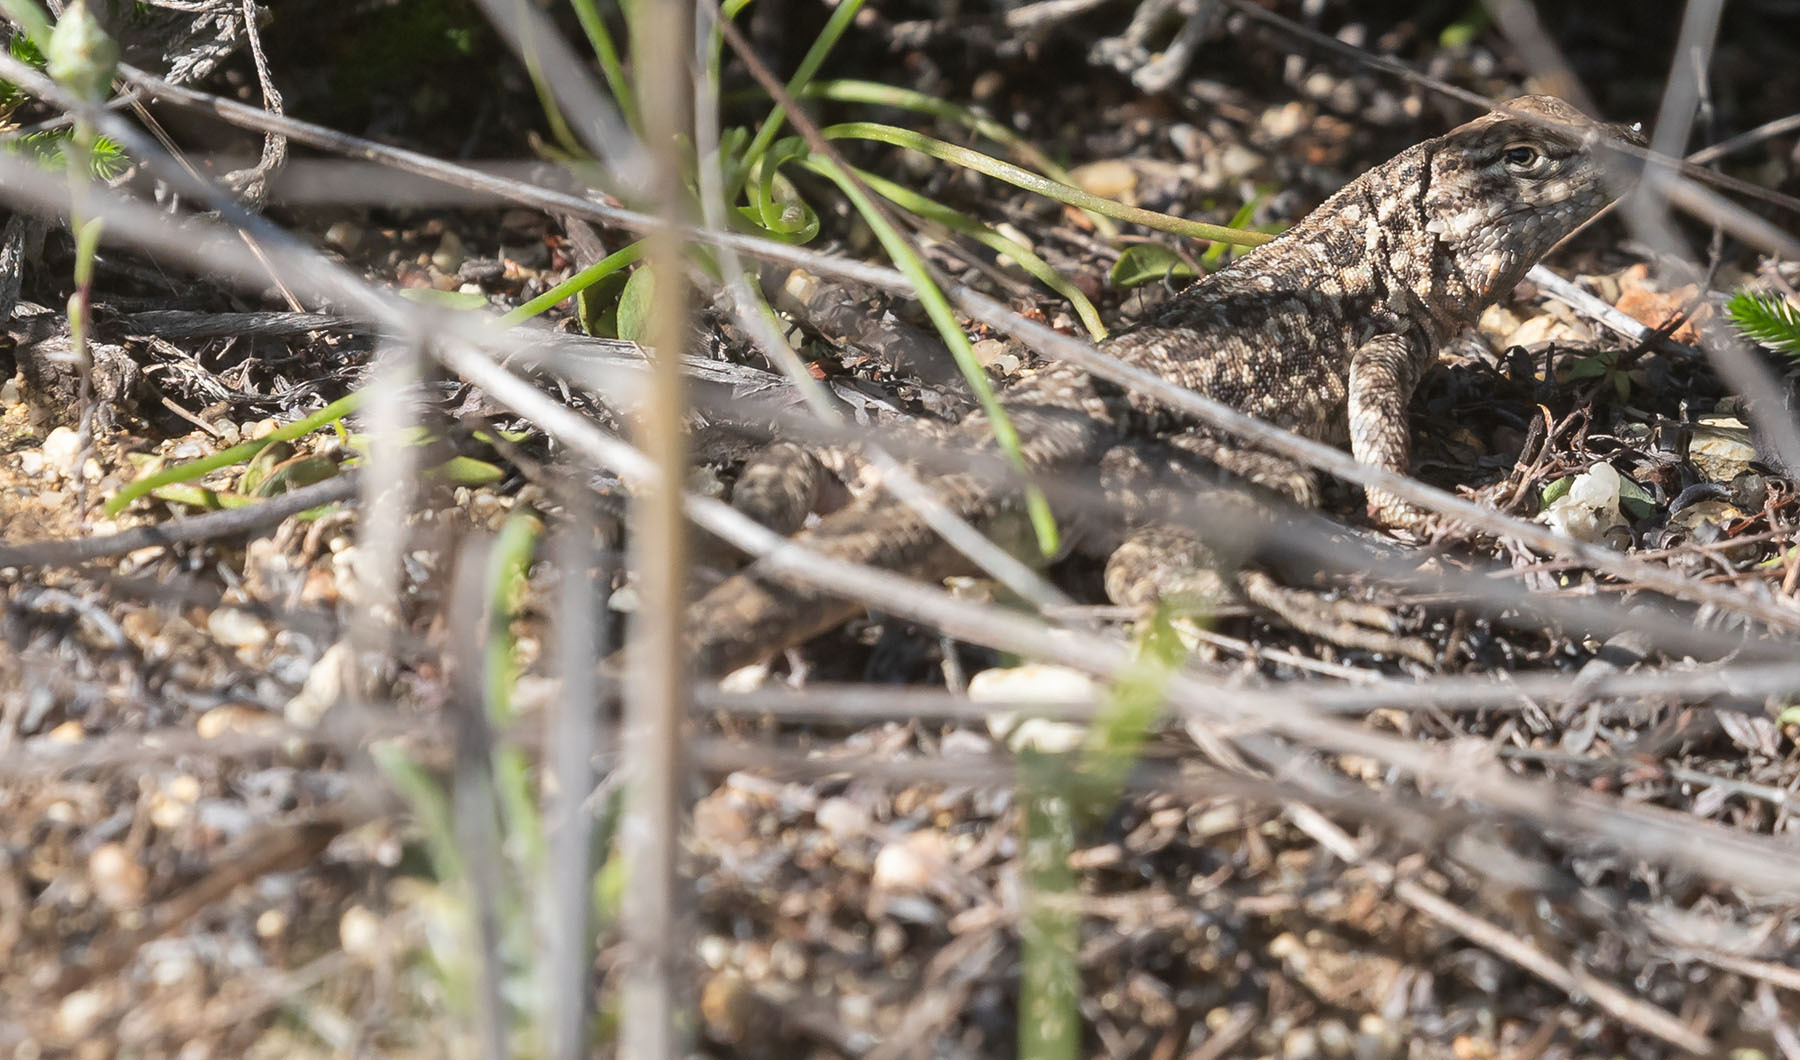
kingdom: Animalia
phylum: Chordata
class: Squamata
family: Phrynosomatidae
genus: Uta
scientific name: Uta stansburiana
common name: Side-blotched lizard
